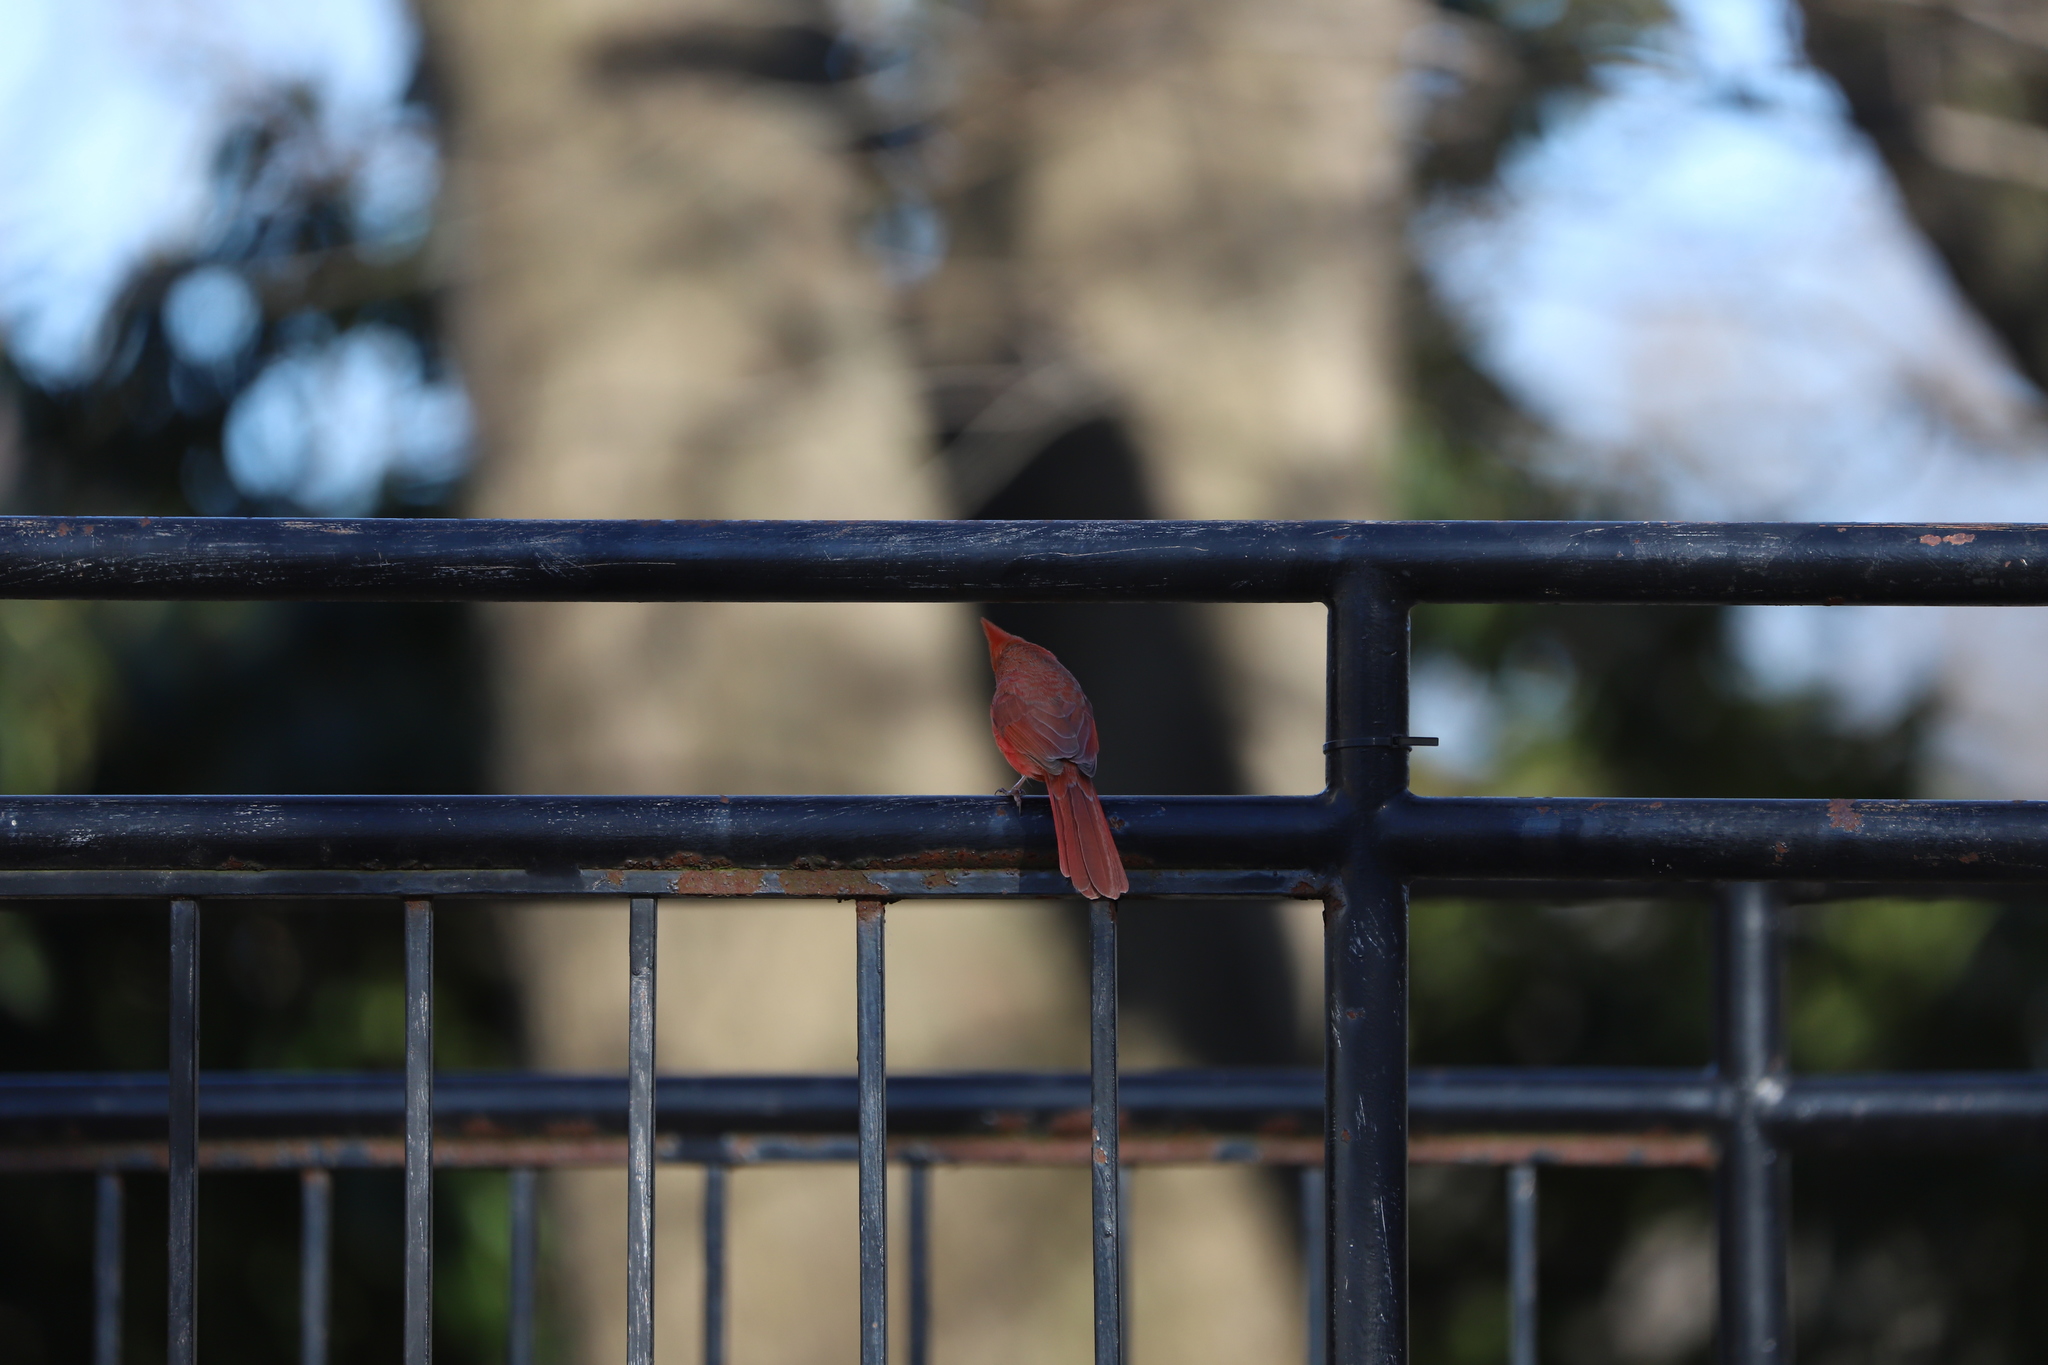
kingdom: Animalia
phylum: Chordata
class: Aves
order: Passeriformes
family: Cardinalidae
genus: Cardinalis
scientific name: Cardinalis cardinalis
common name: Northern cardinal
